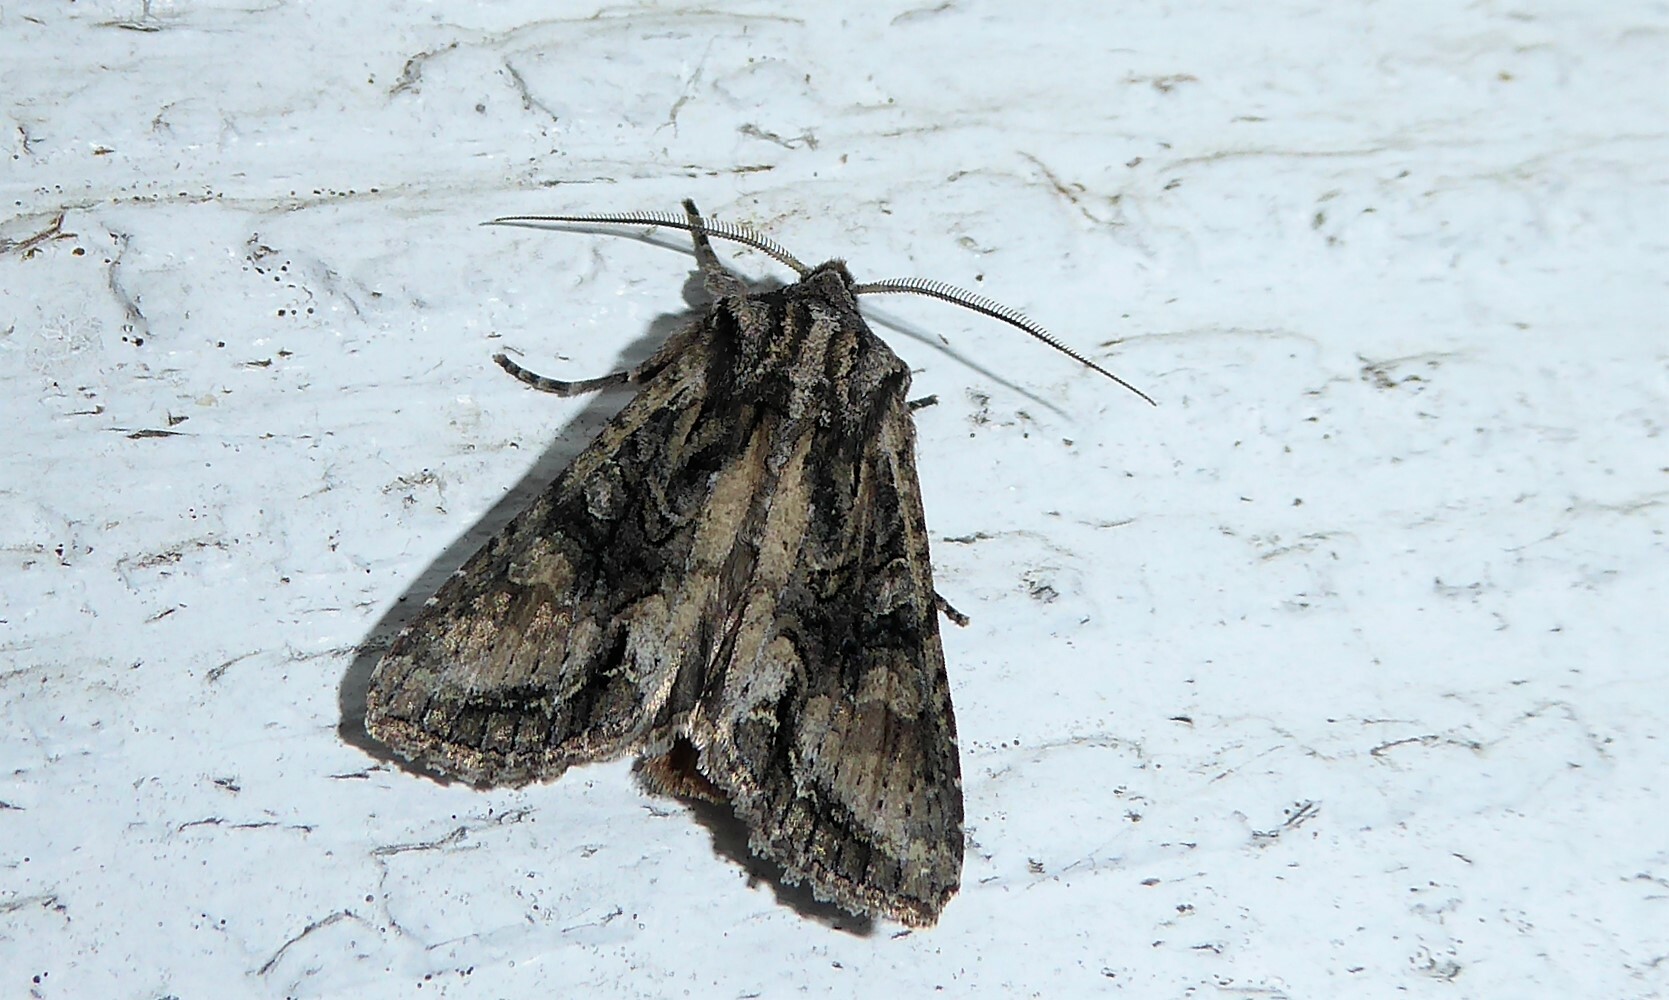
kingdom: Animalia
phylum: Arthropoda
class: Insecta
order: Lepidoptera
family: Noctuidae
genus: Ichneutica
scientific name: Ichneutica mutans
